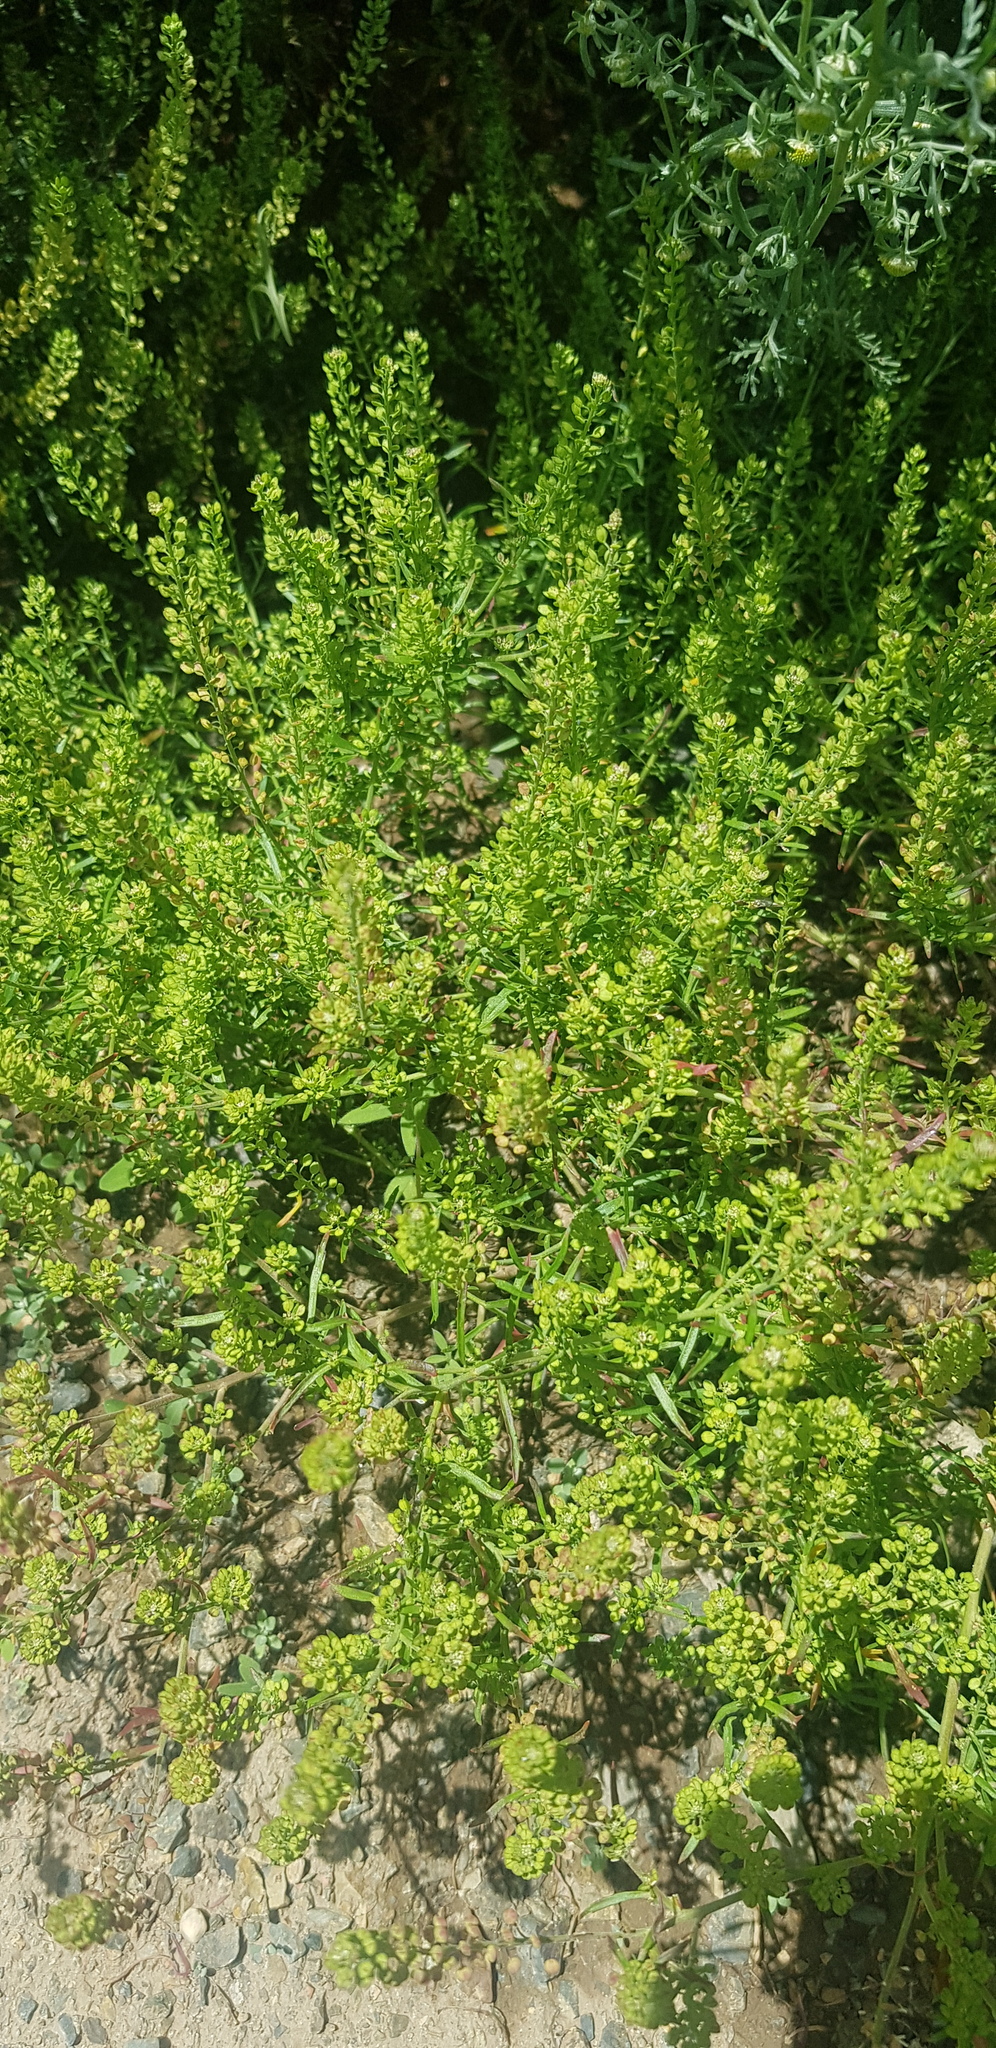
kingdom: Plantae
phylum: Tracheophyta
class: Magnoliopsida
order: Brassicales
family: Brassicaceae
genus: Lepidium
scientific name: Lepidium densiflorum
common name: Miner's pepperwort
